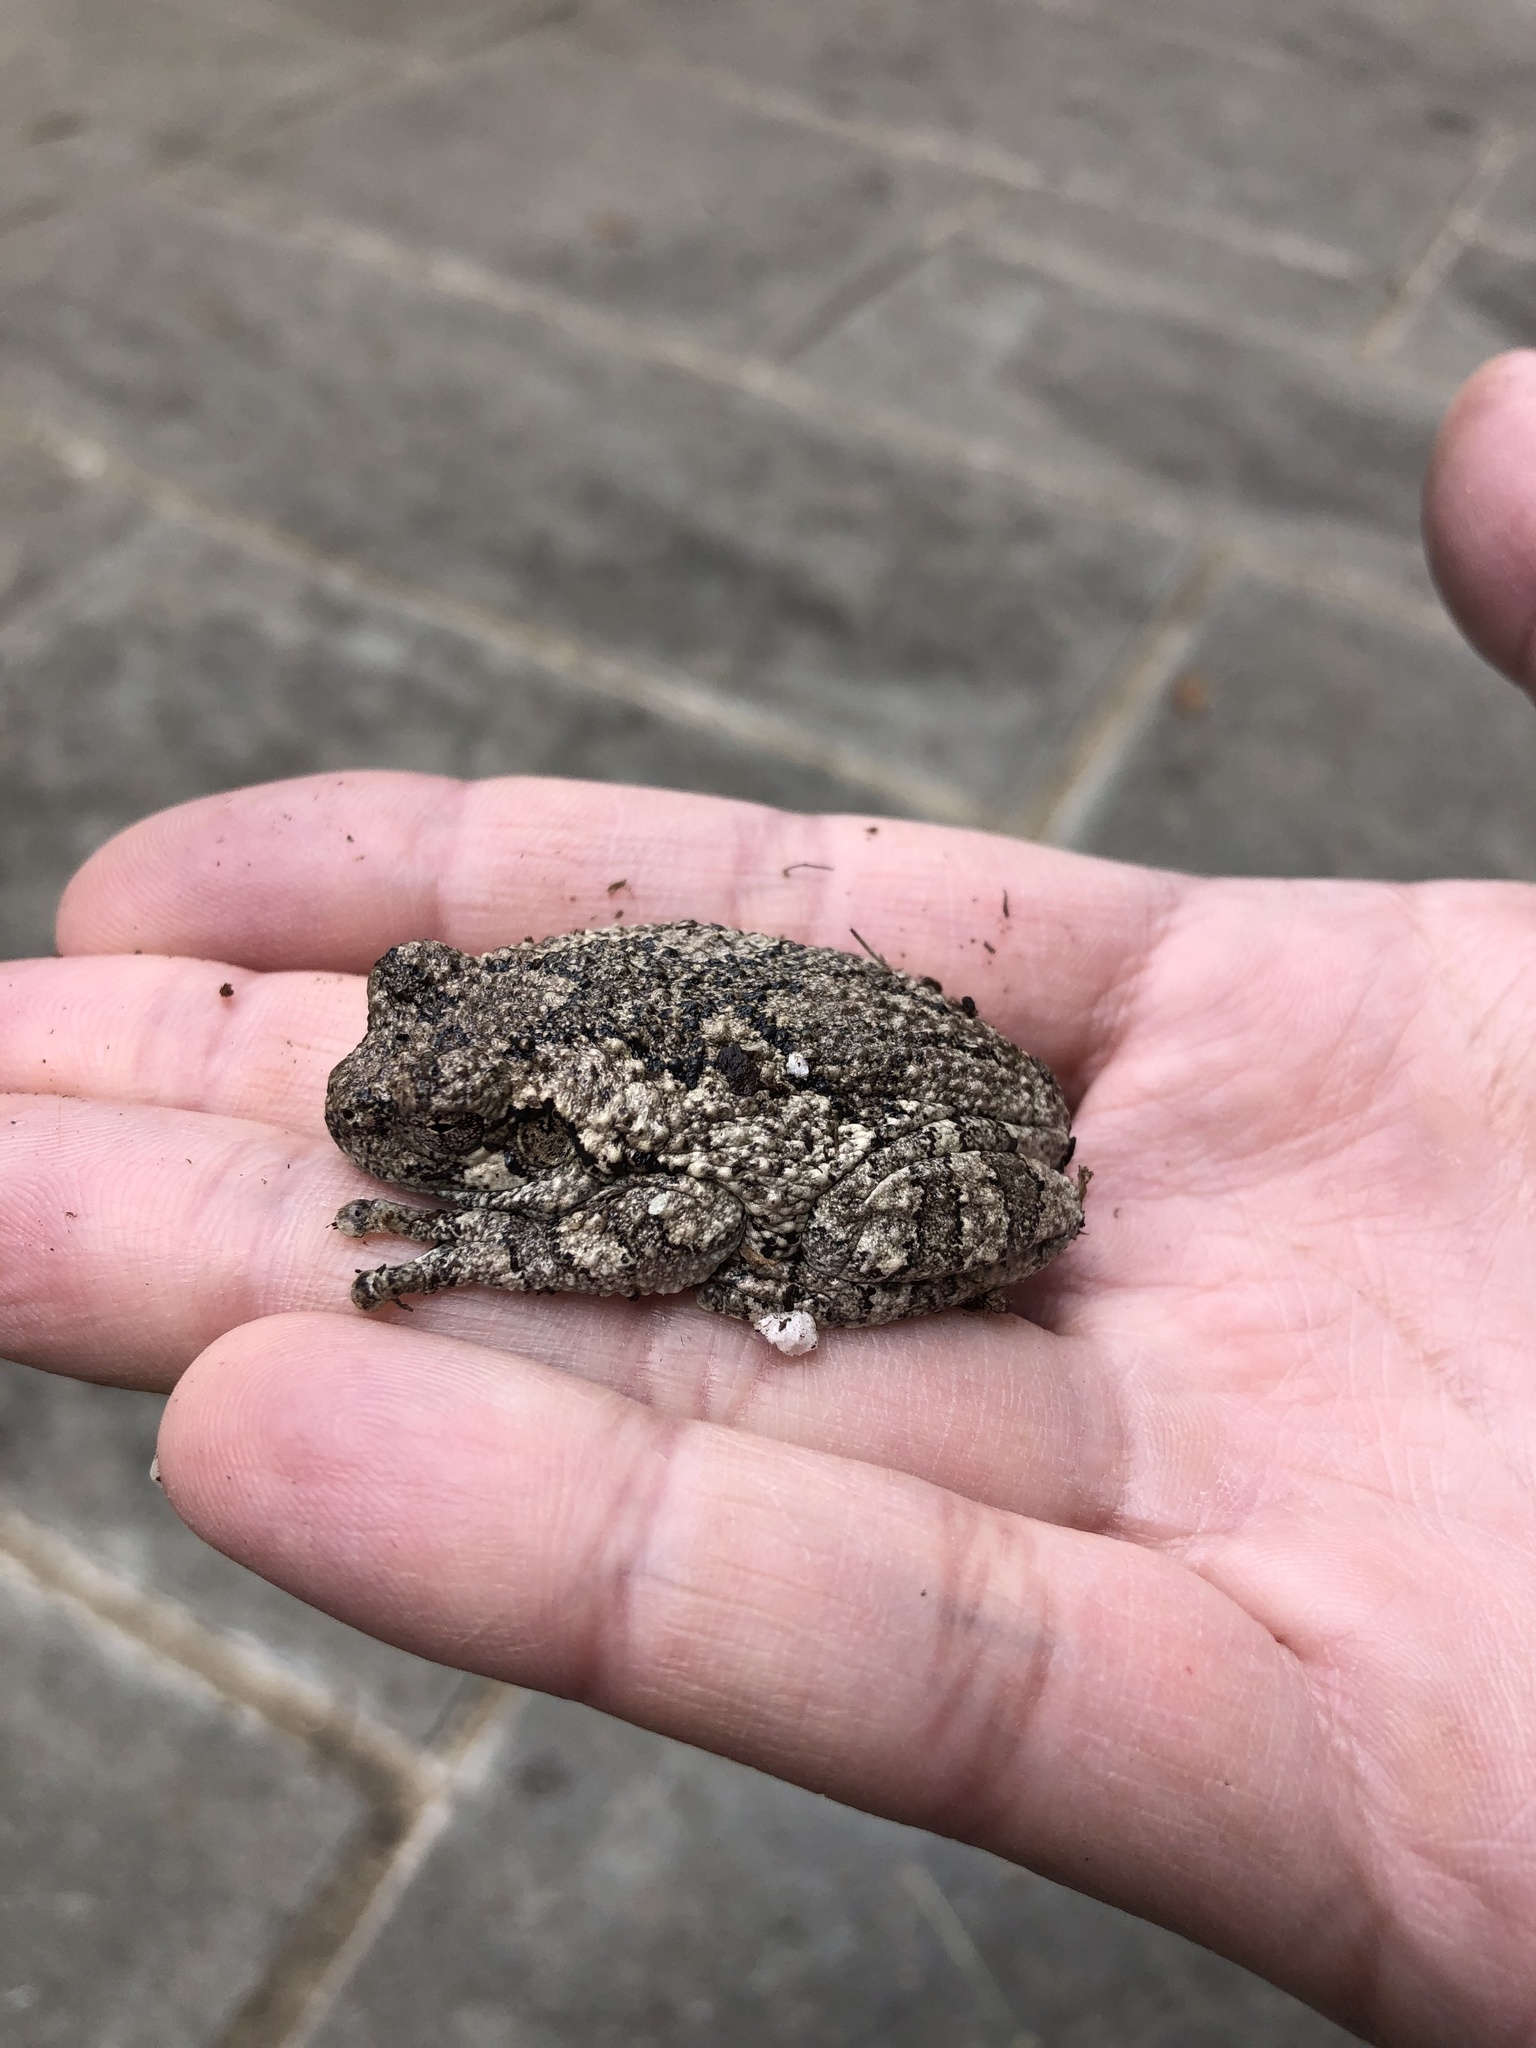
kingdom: Animalia
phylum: Chordata
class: Amphibia
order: Anura
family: Hylidae
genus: Hyla
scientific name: Hyla
